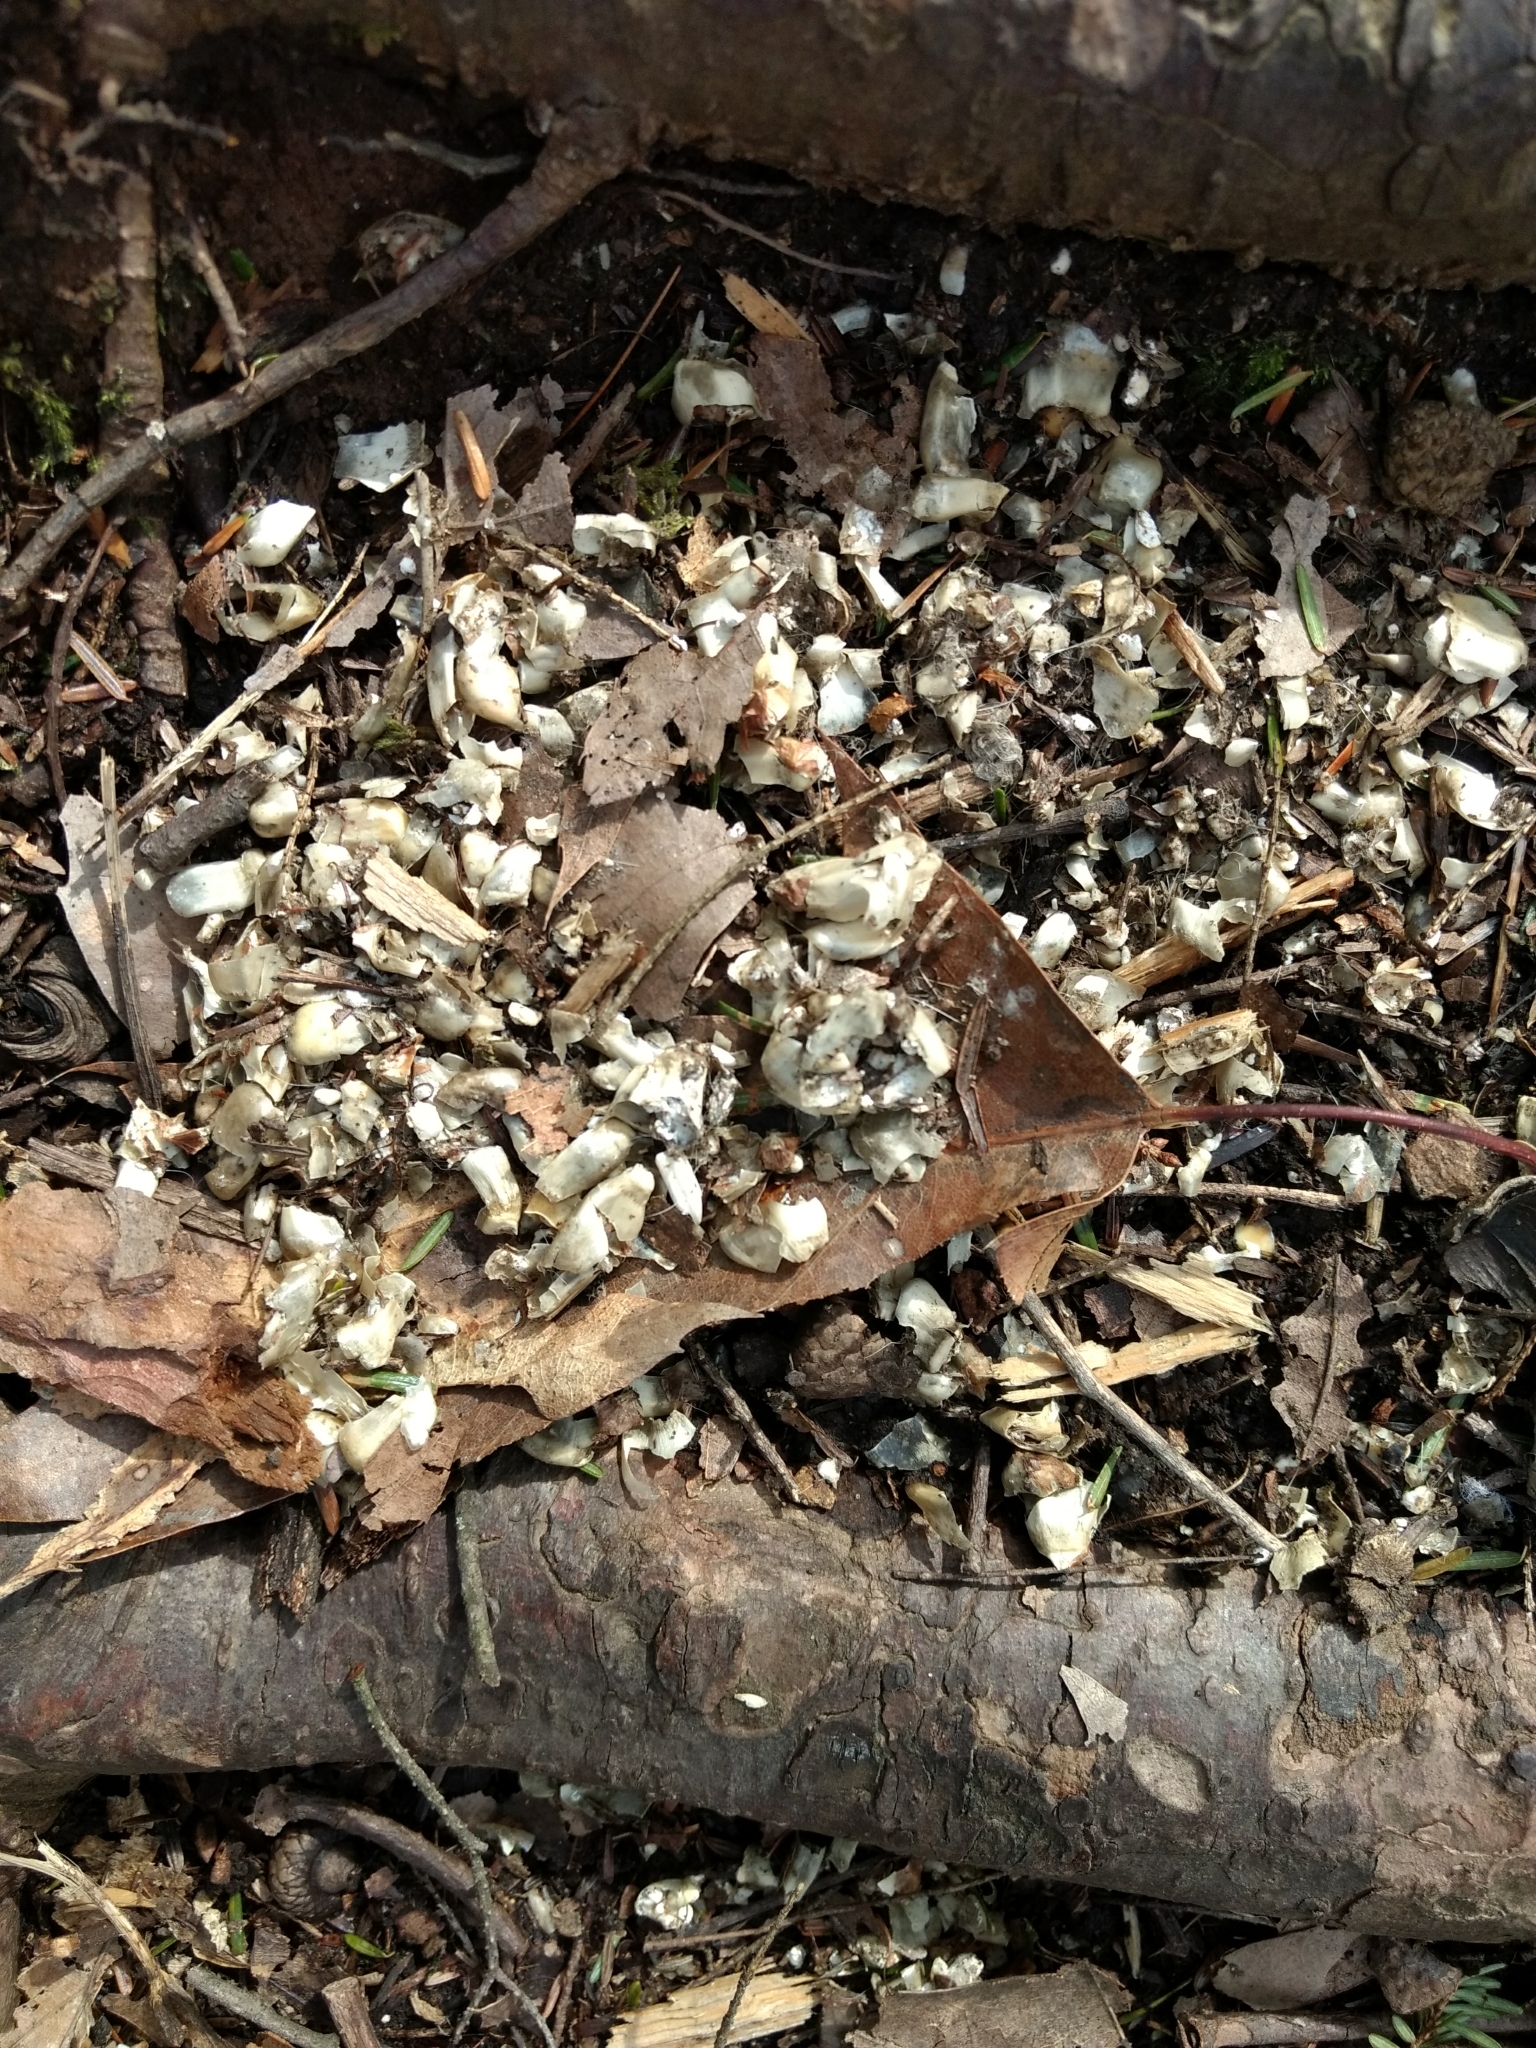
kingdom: Animalia
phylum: Chordata
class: Mammalia
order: Carnivora
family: Mustelidae
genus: Lontra
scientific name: Lontra canadensis
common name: North american river otter
